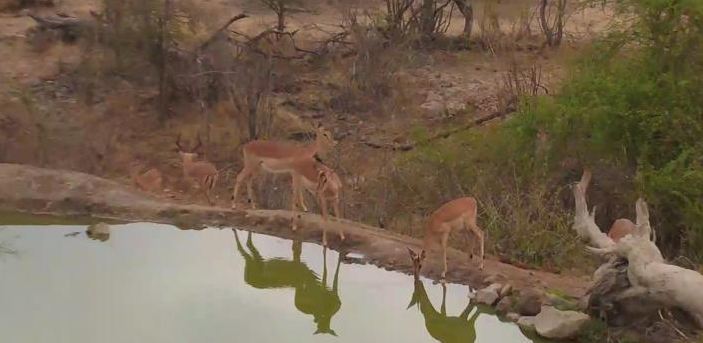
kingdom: Animalia
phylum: Chordata
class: Mammalia
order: Artiodactyla
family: Bovidae
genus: Aepyceros
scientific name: Aepyceros melampus
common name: Impala
